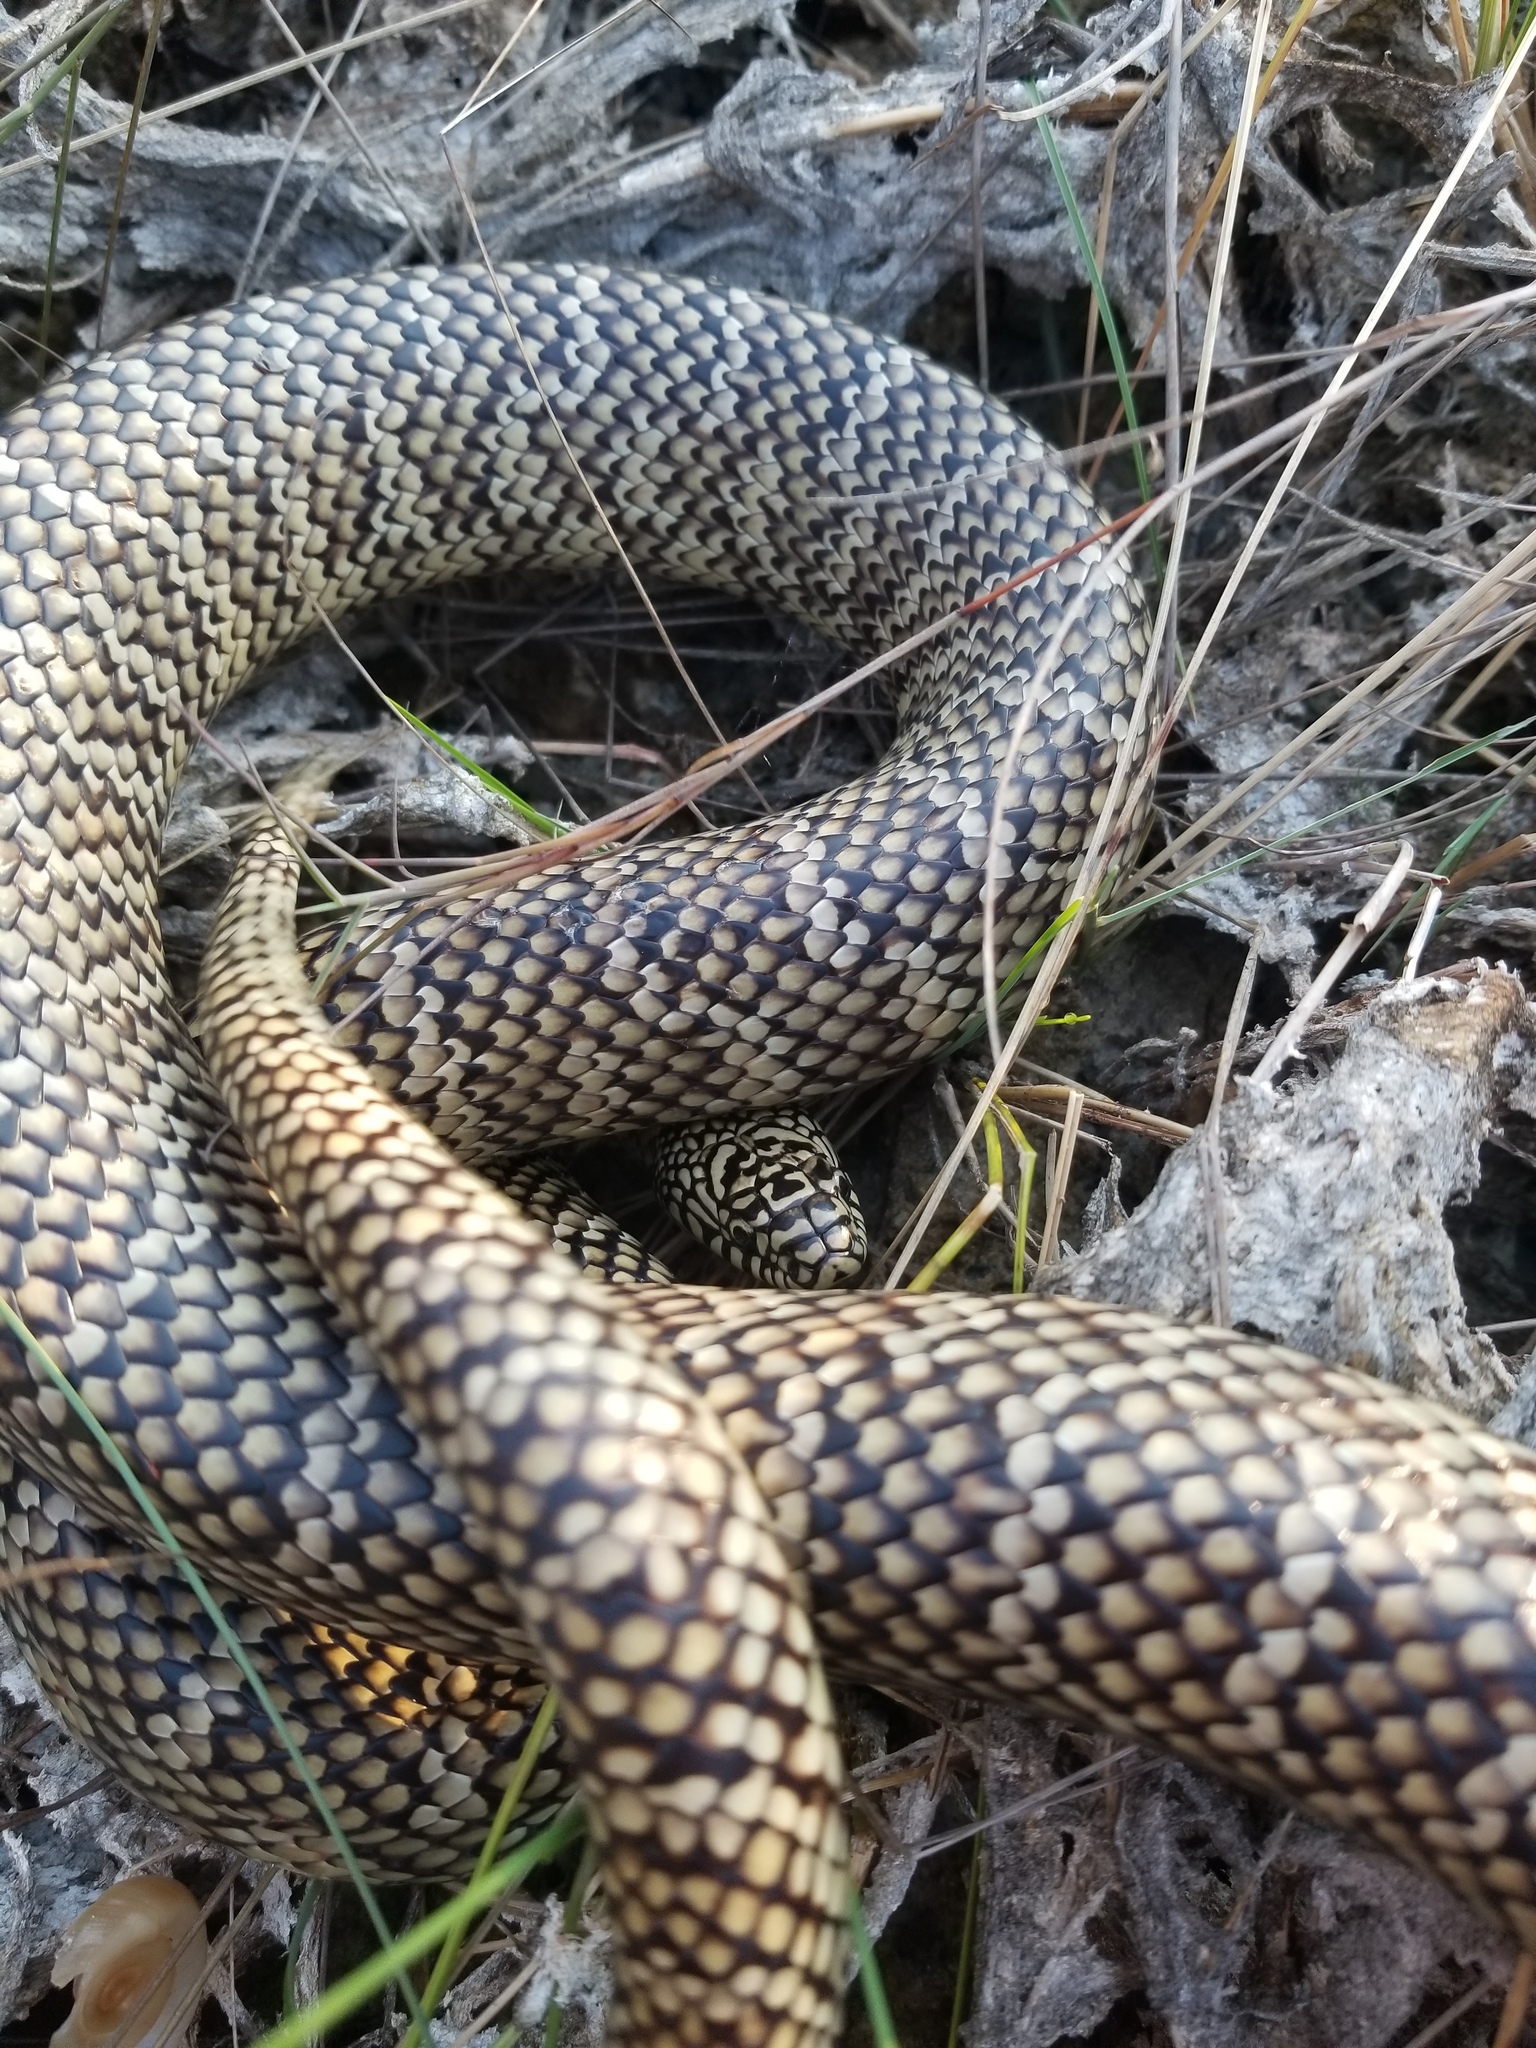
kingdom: Animalia
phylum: Chordata
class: Squamata
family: Colubridae
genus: Lampropeltis
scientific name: Lampropeltis getula
